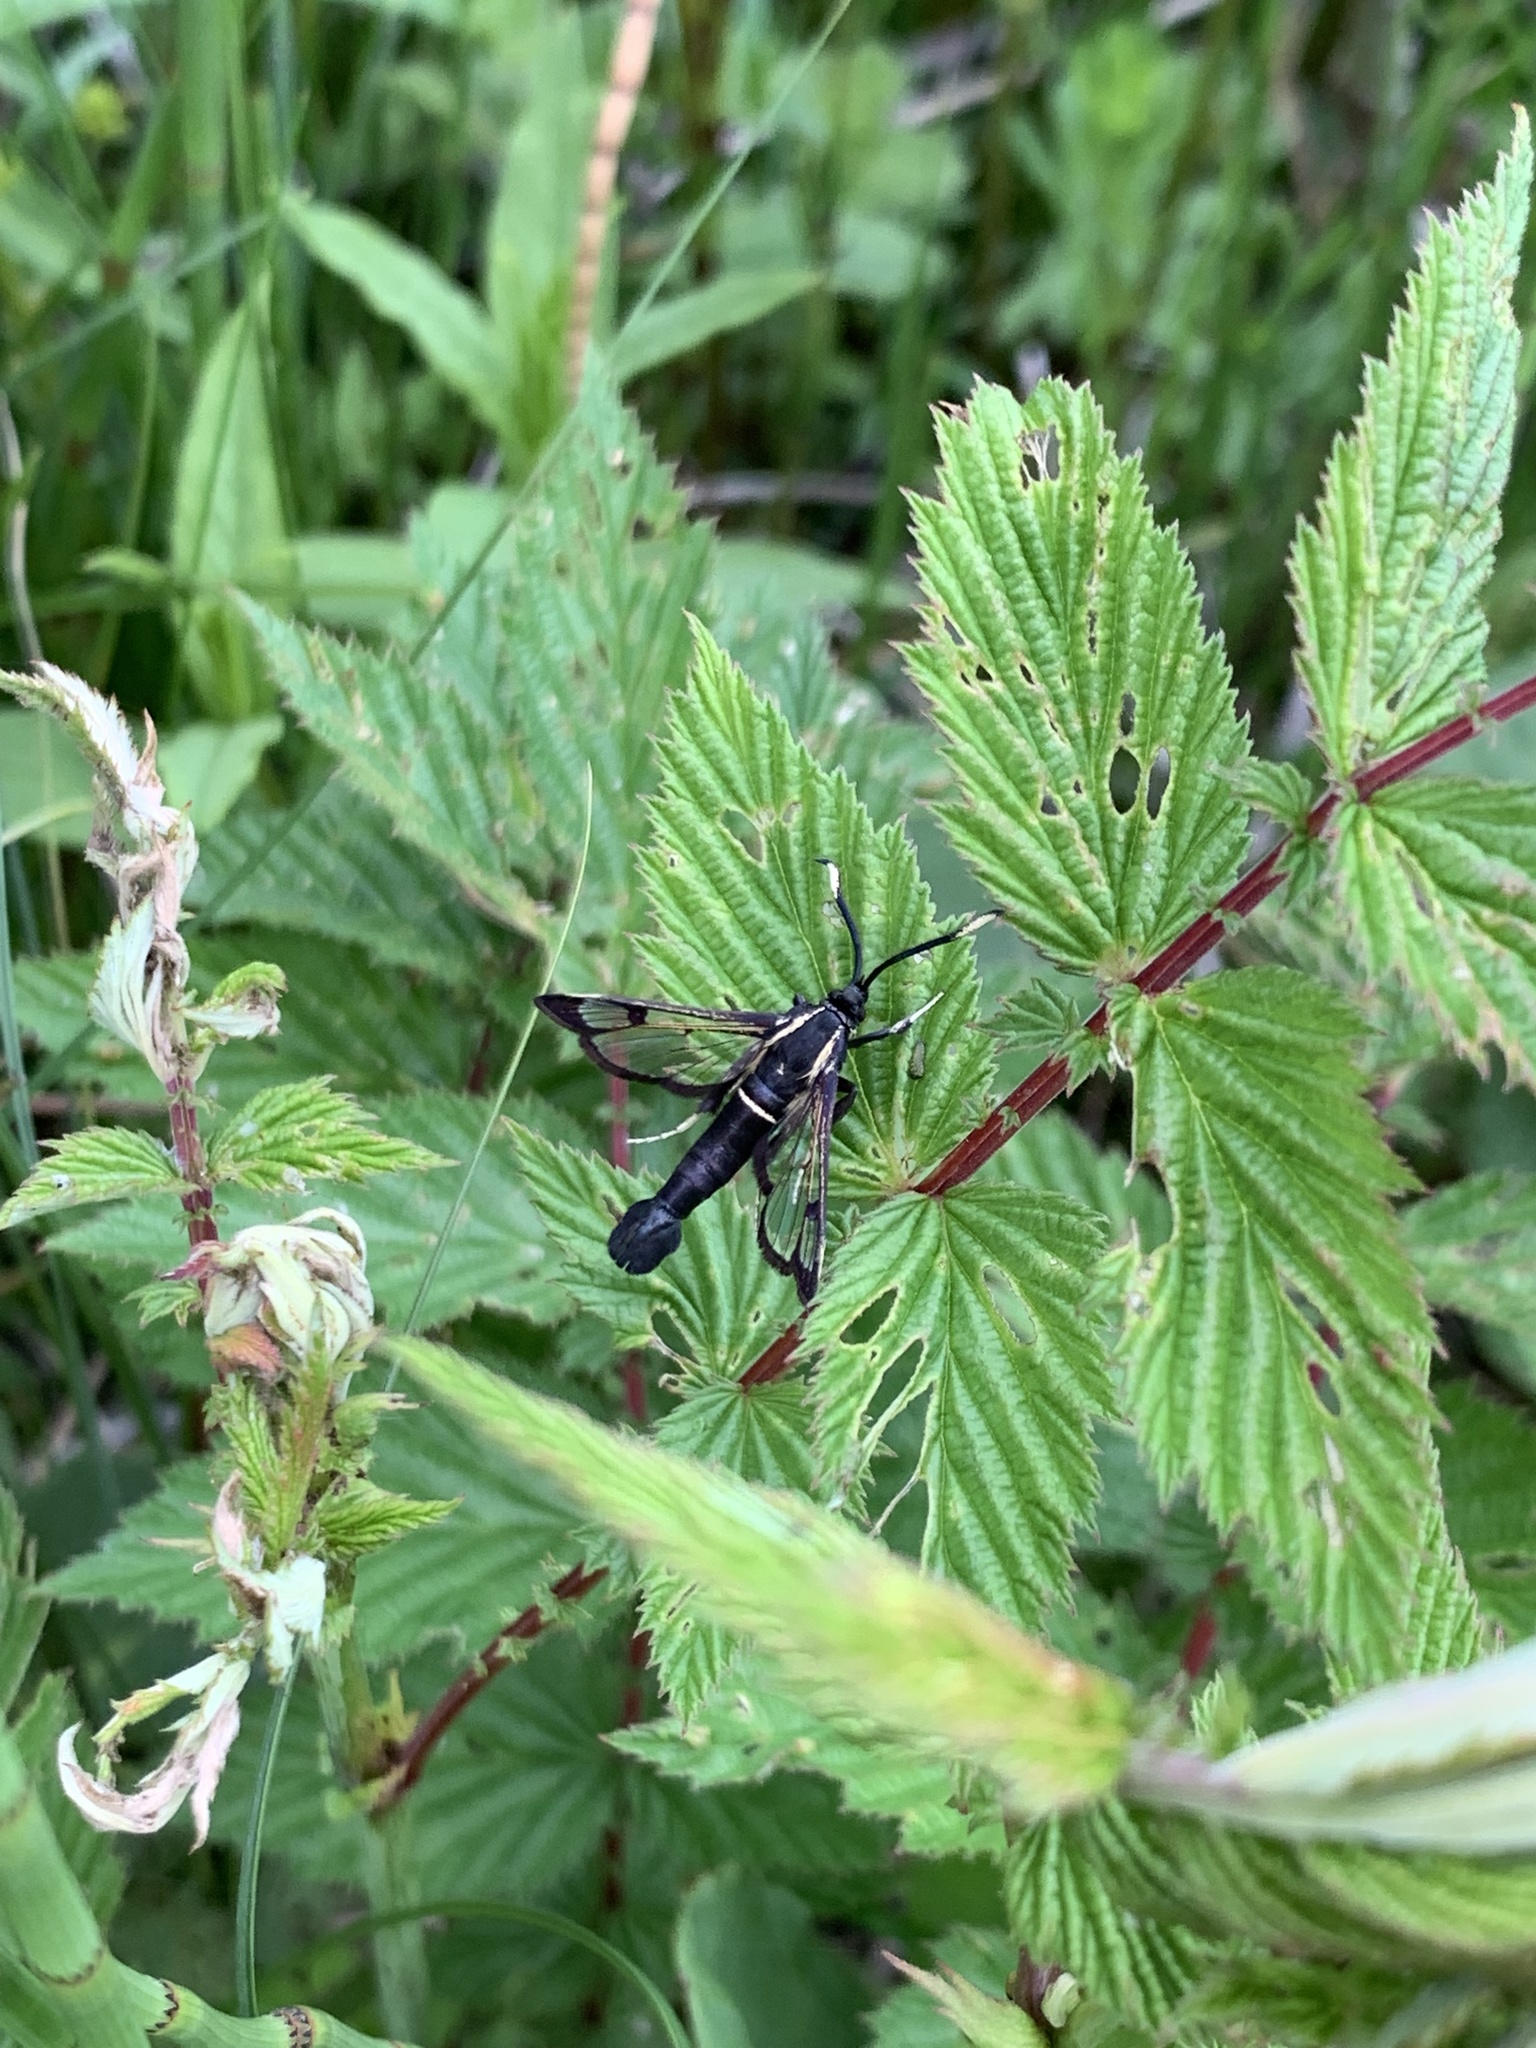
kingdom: Animalia
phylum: Arthropoda
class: Insecta
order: Lepidoptera
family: Sesiidae
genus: Synanthedon
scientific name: Synanthedon spheciformis
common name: White-barred clearwing
